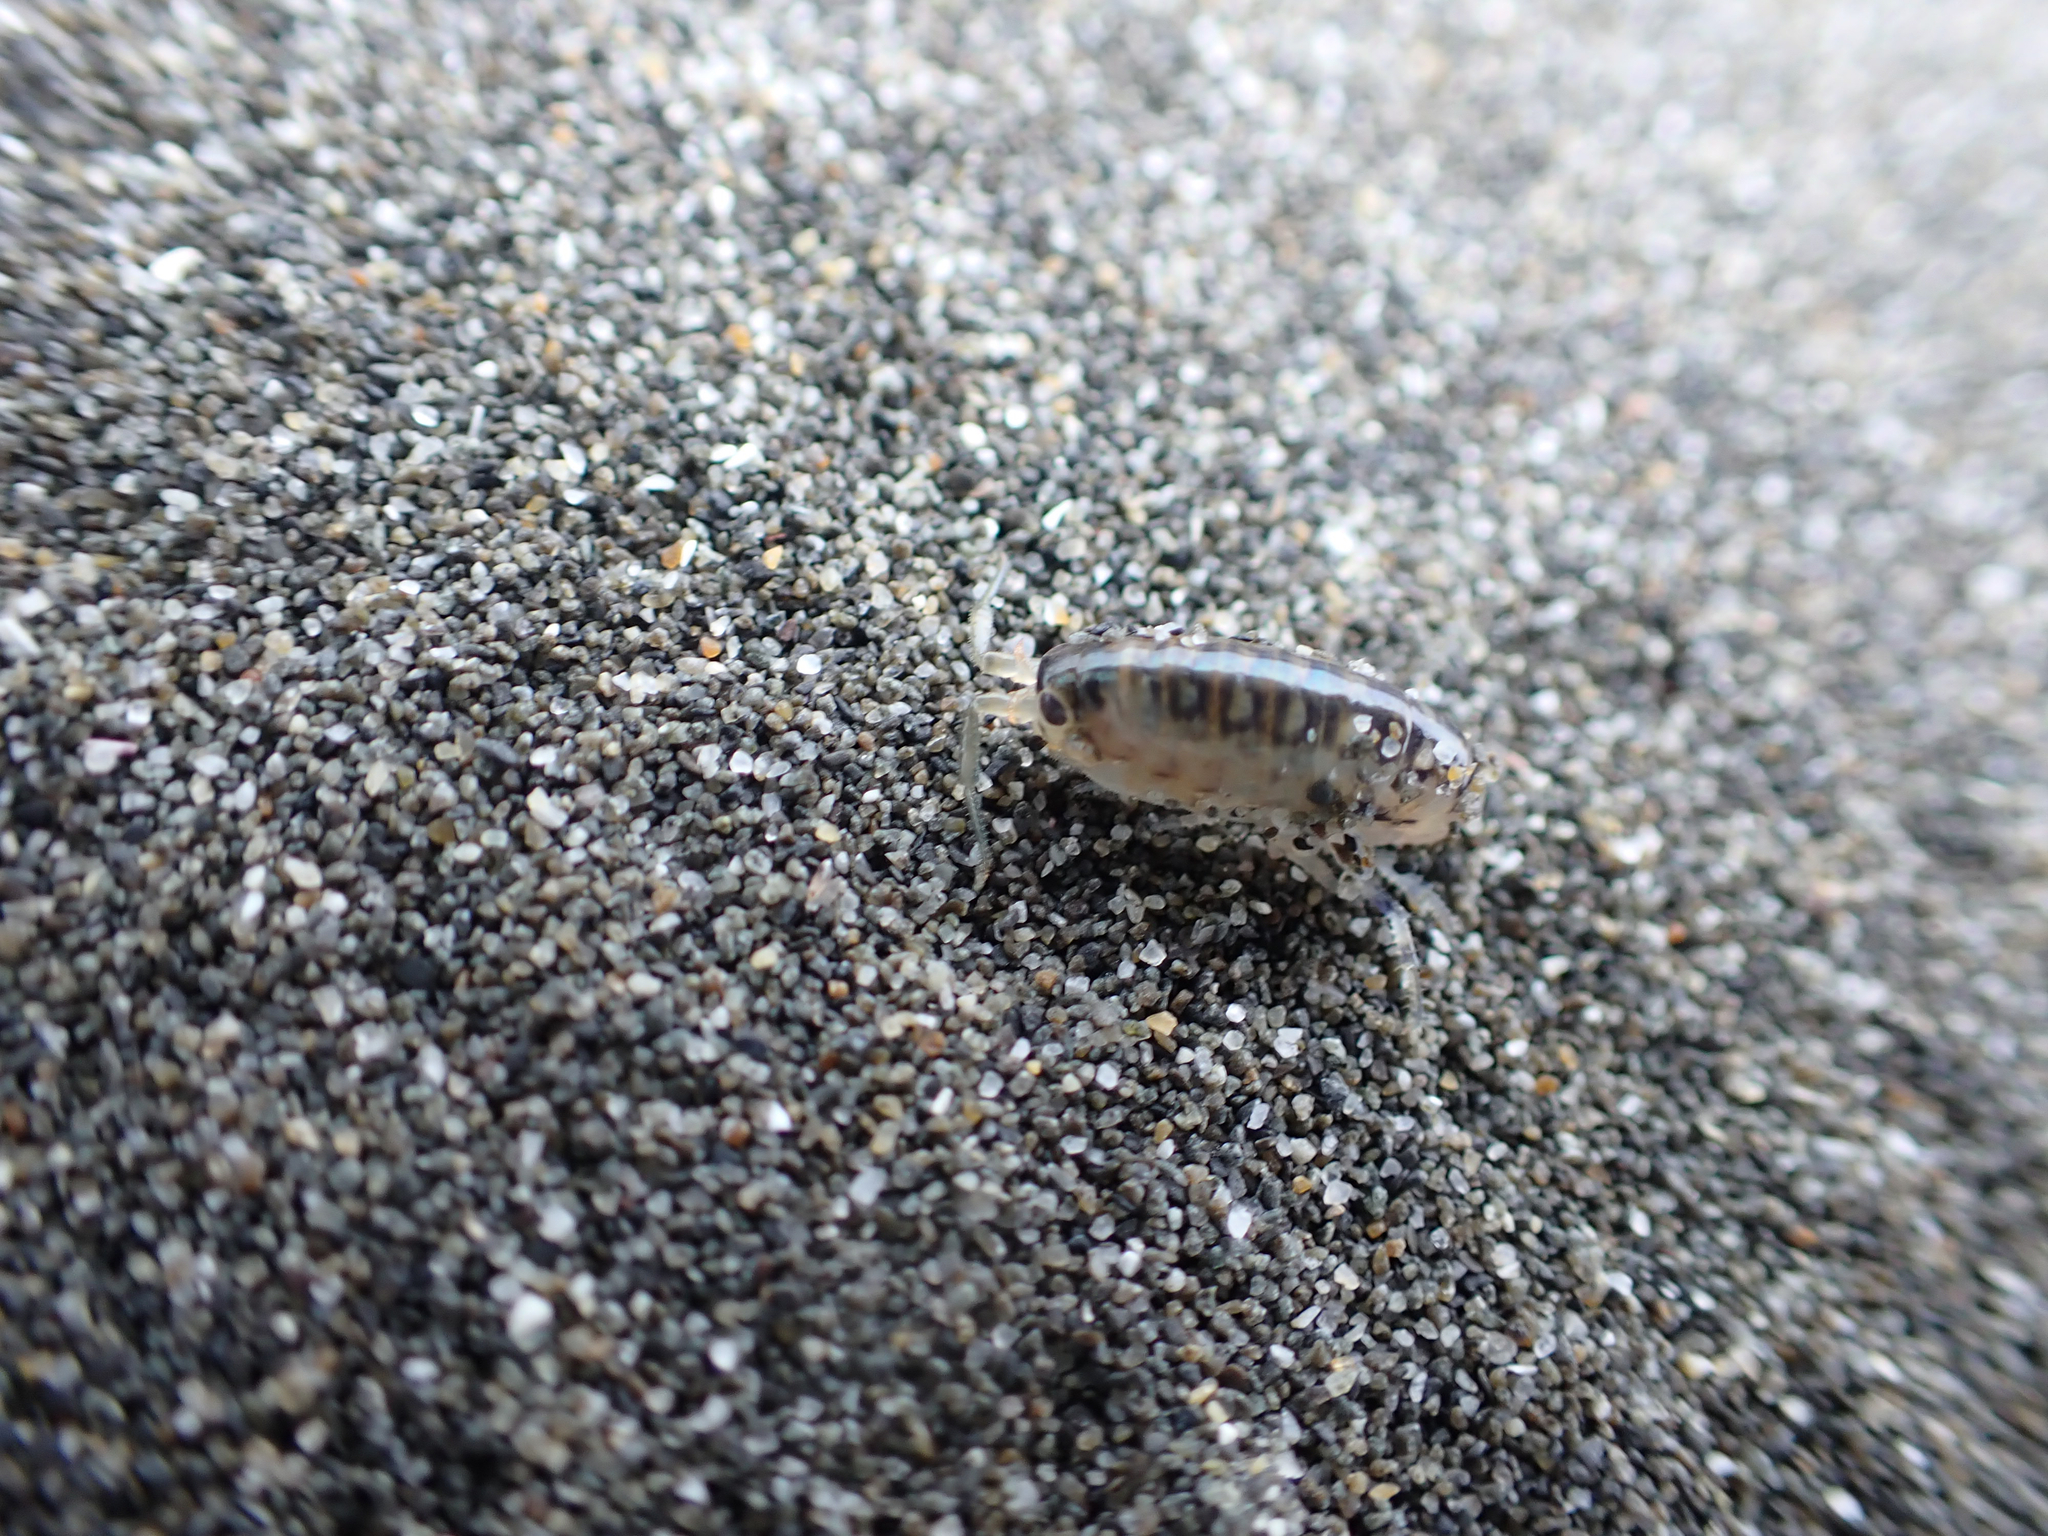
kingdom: Animalia
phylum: Arthropoda
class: Malacostraca
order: Amphipoda
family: Talitridae
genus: Megalorchestia
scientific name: Megalorchestia pugettensis
